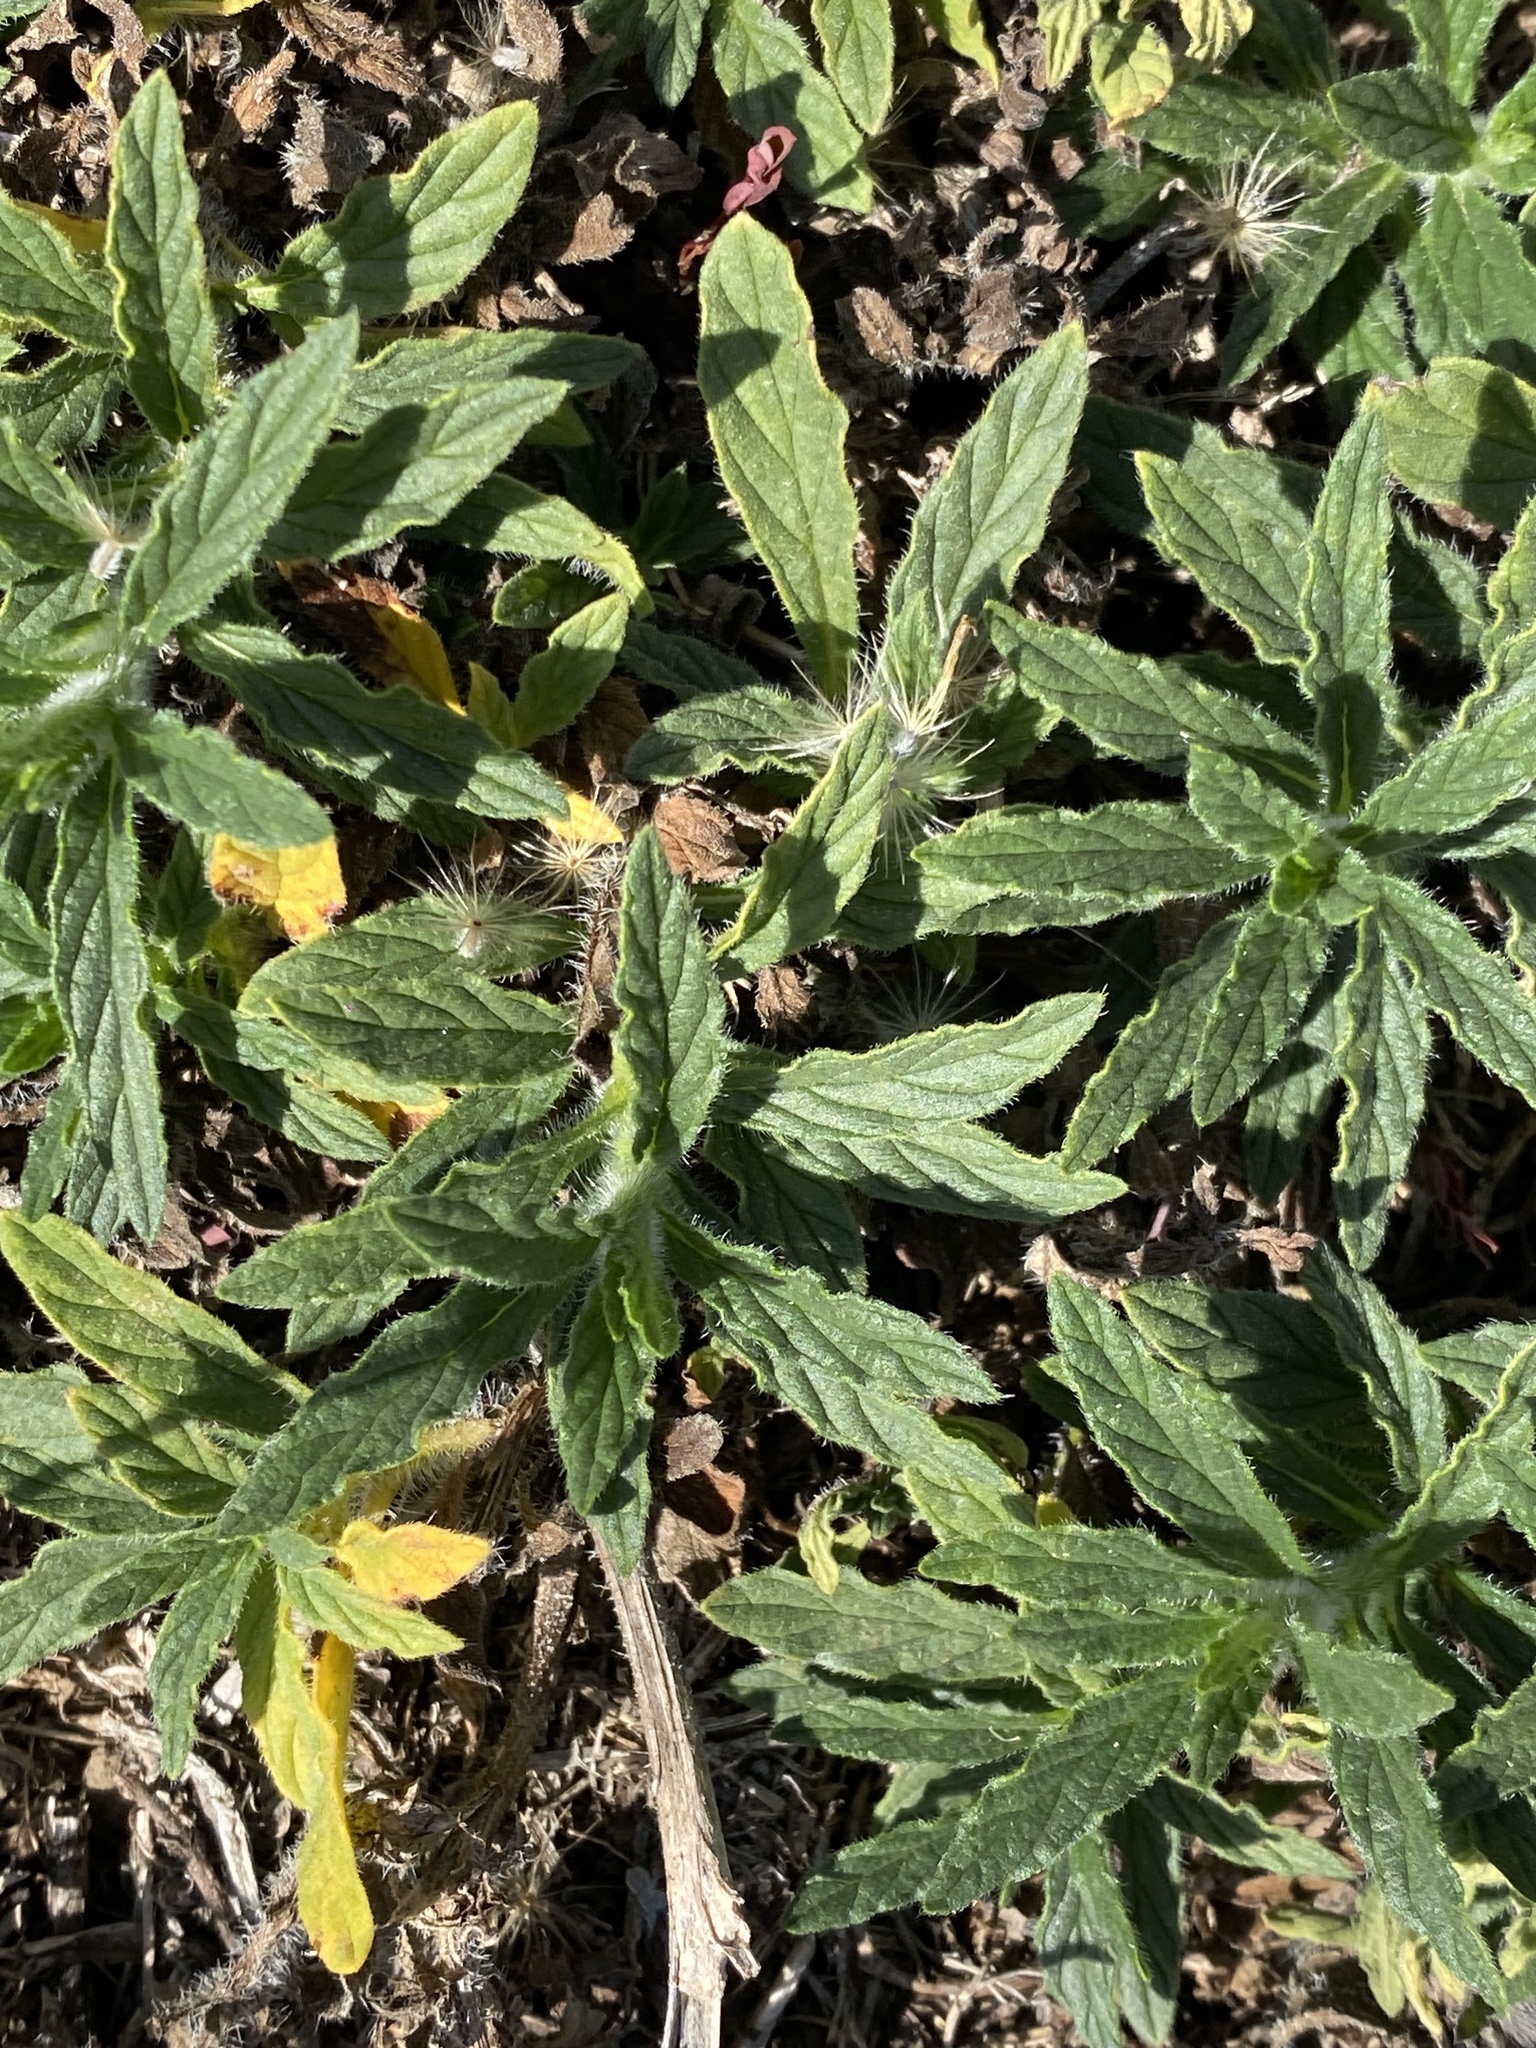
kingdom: Plantae
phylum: Tracheophyta
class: Magnoliopsida
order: Boraginales
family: Heliotropiaceae
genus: Heliotropium
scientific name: Heliotropium amplexicaule
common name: Clasping heliotrope
